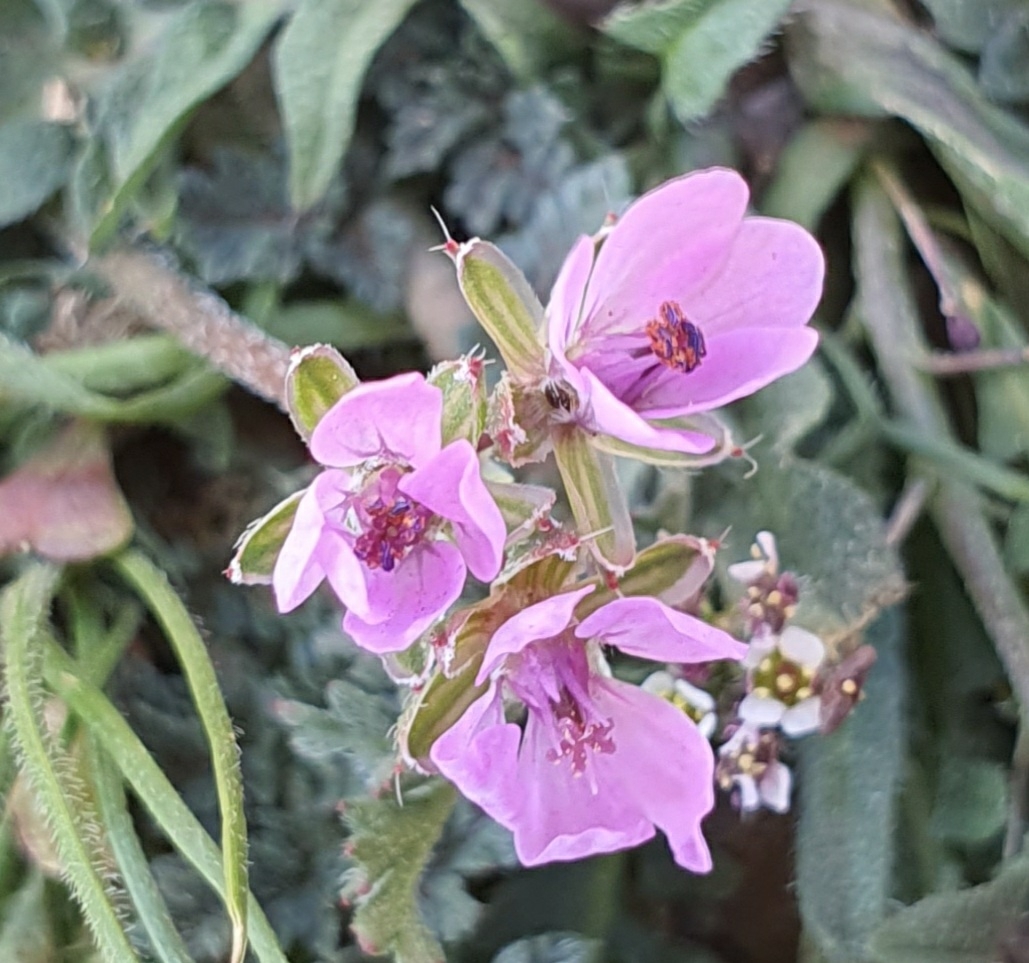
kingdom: Plantae
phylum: Tracheophyta
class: Magnoliopsida
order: Geraniales
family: Geraniaceae
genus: Erodium
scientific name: Erodium cicutarium
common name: Common stork's-bill
